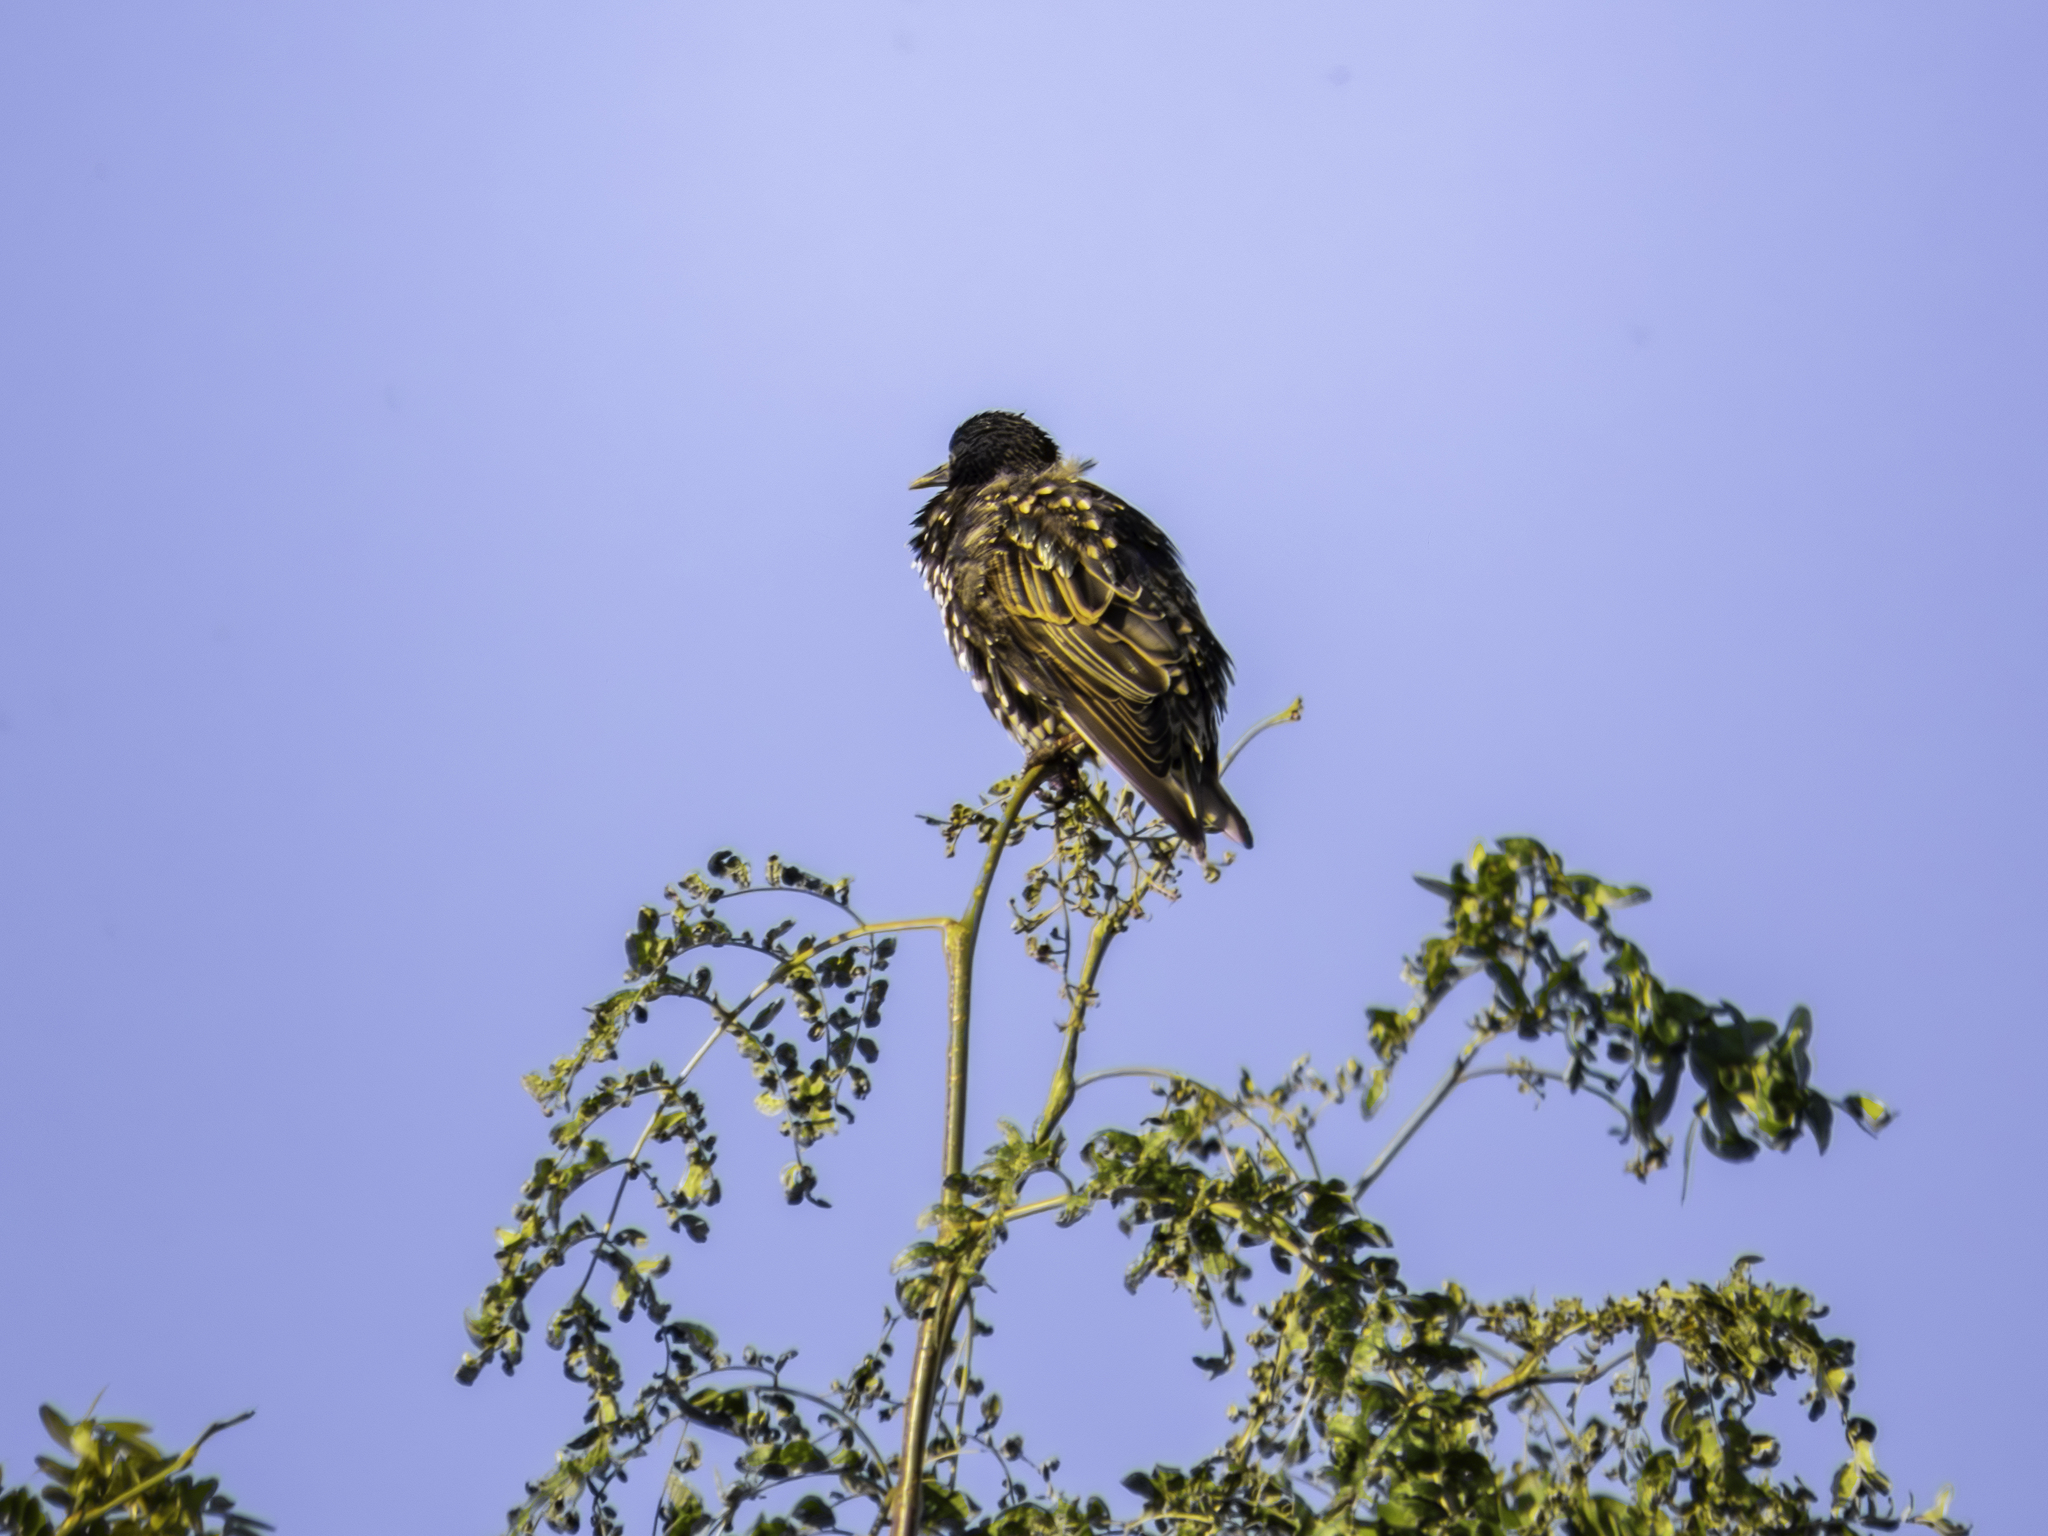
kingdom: Animalia
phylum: Chordata
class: Aves
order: Passeriformes
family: Sturnidae
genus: Sturnus
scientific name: Sturnus vulgaris
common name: Common starling
